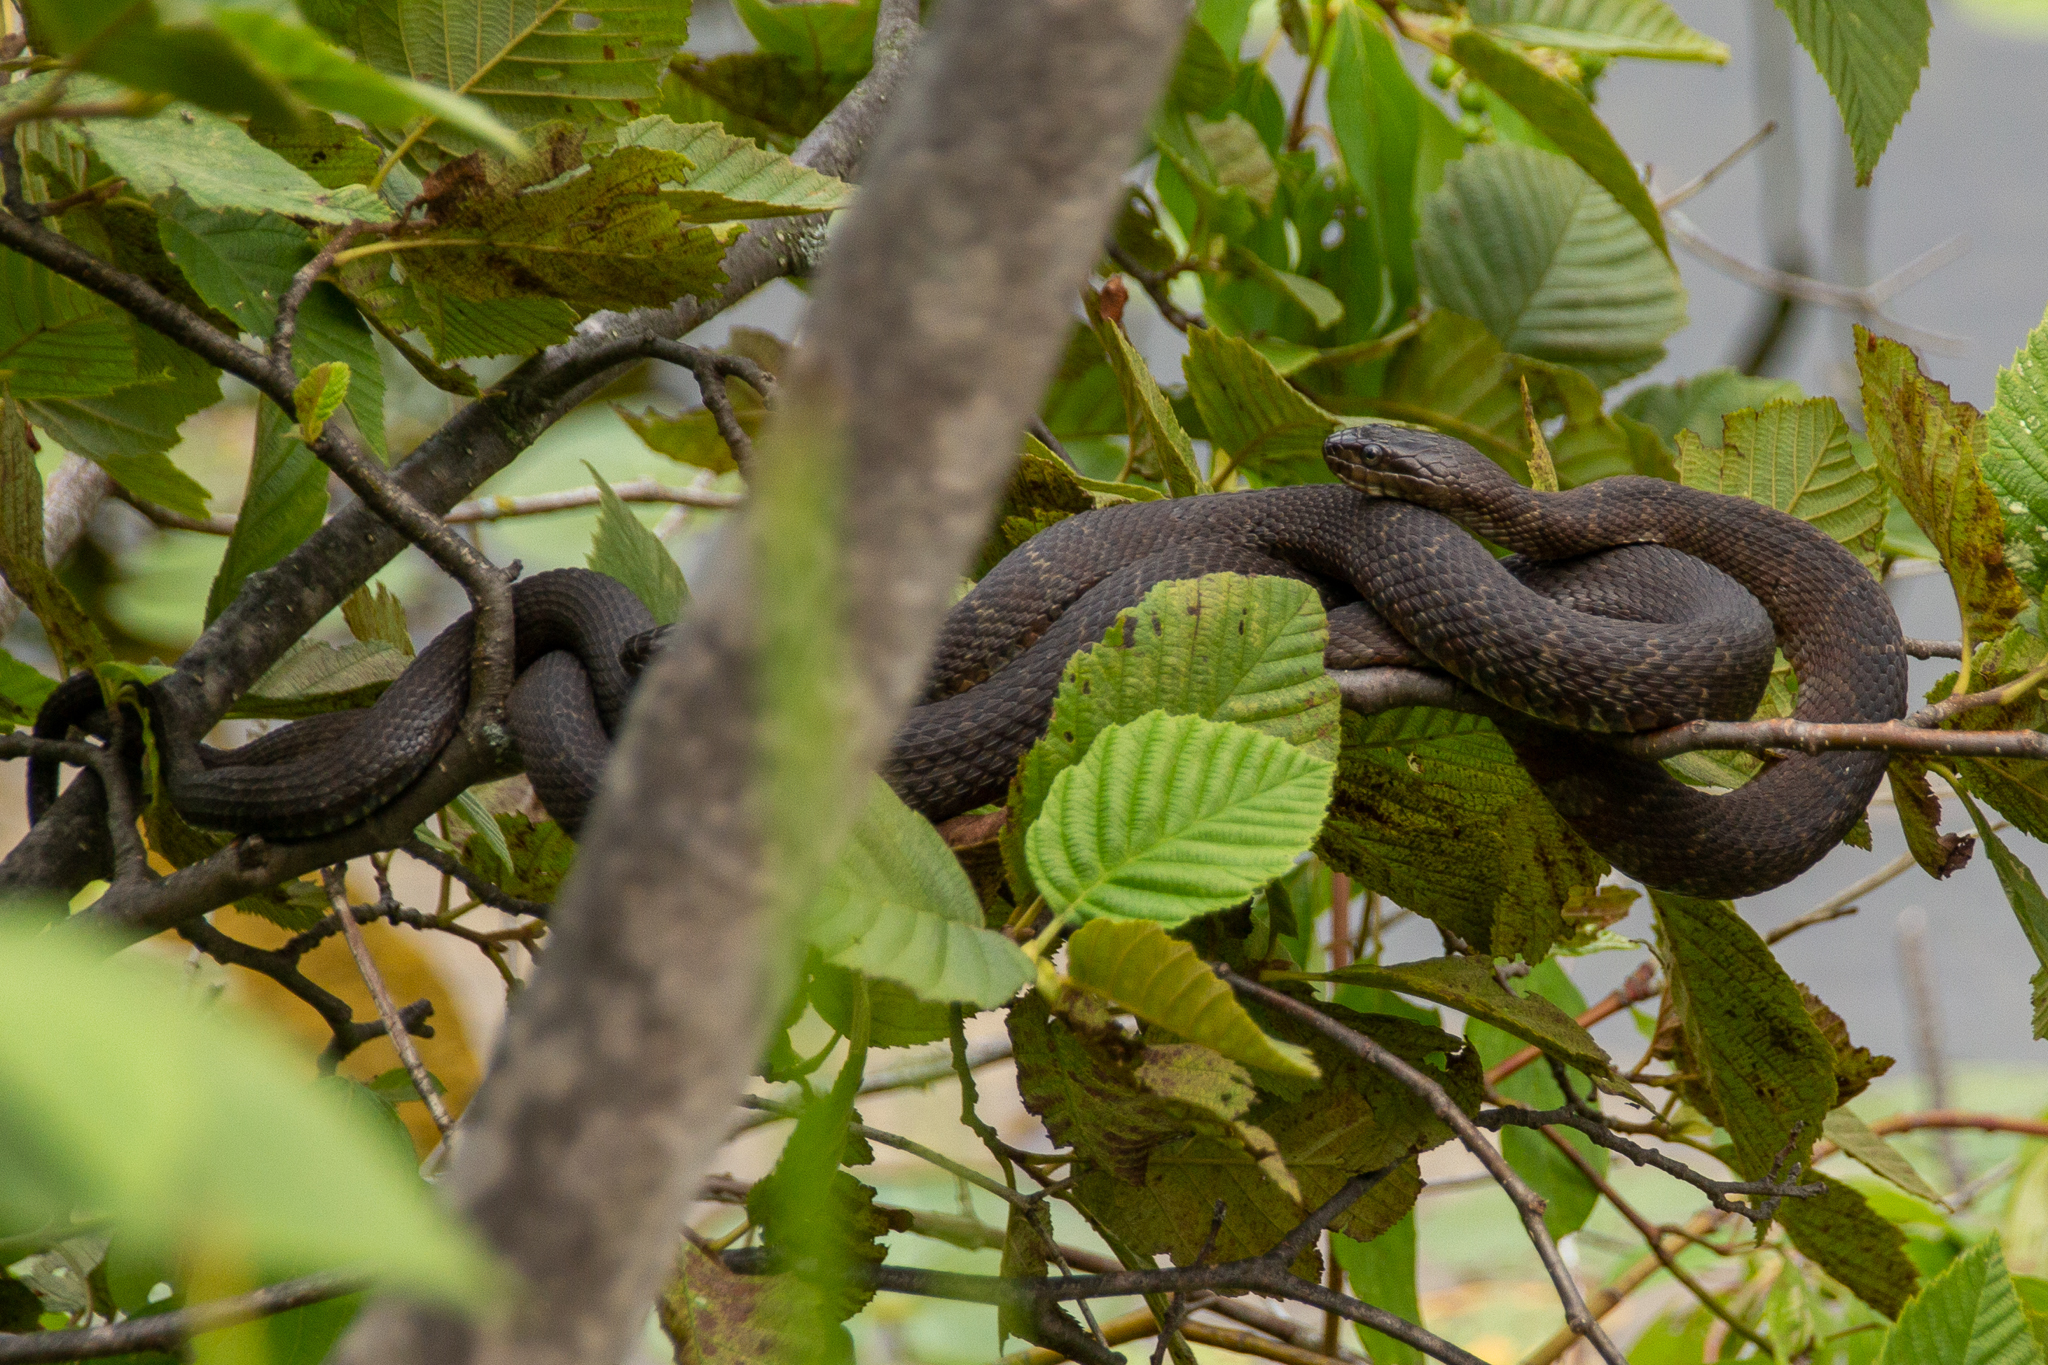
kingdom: Animalia
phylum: Chordata
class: Squamata
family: Colubridae
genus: Nerodia
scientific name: Nerodia sipedon
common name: Northern water snake
